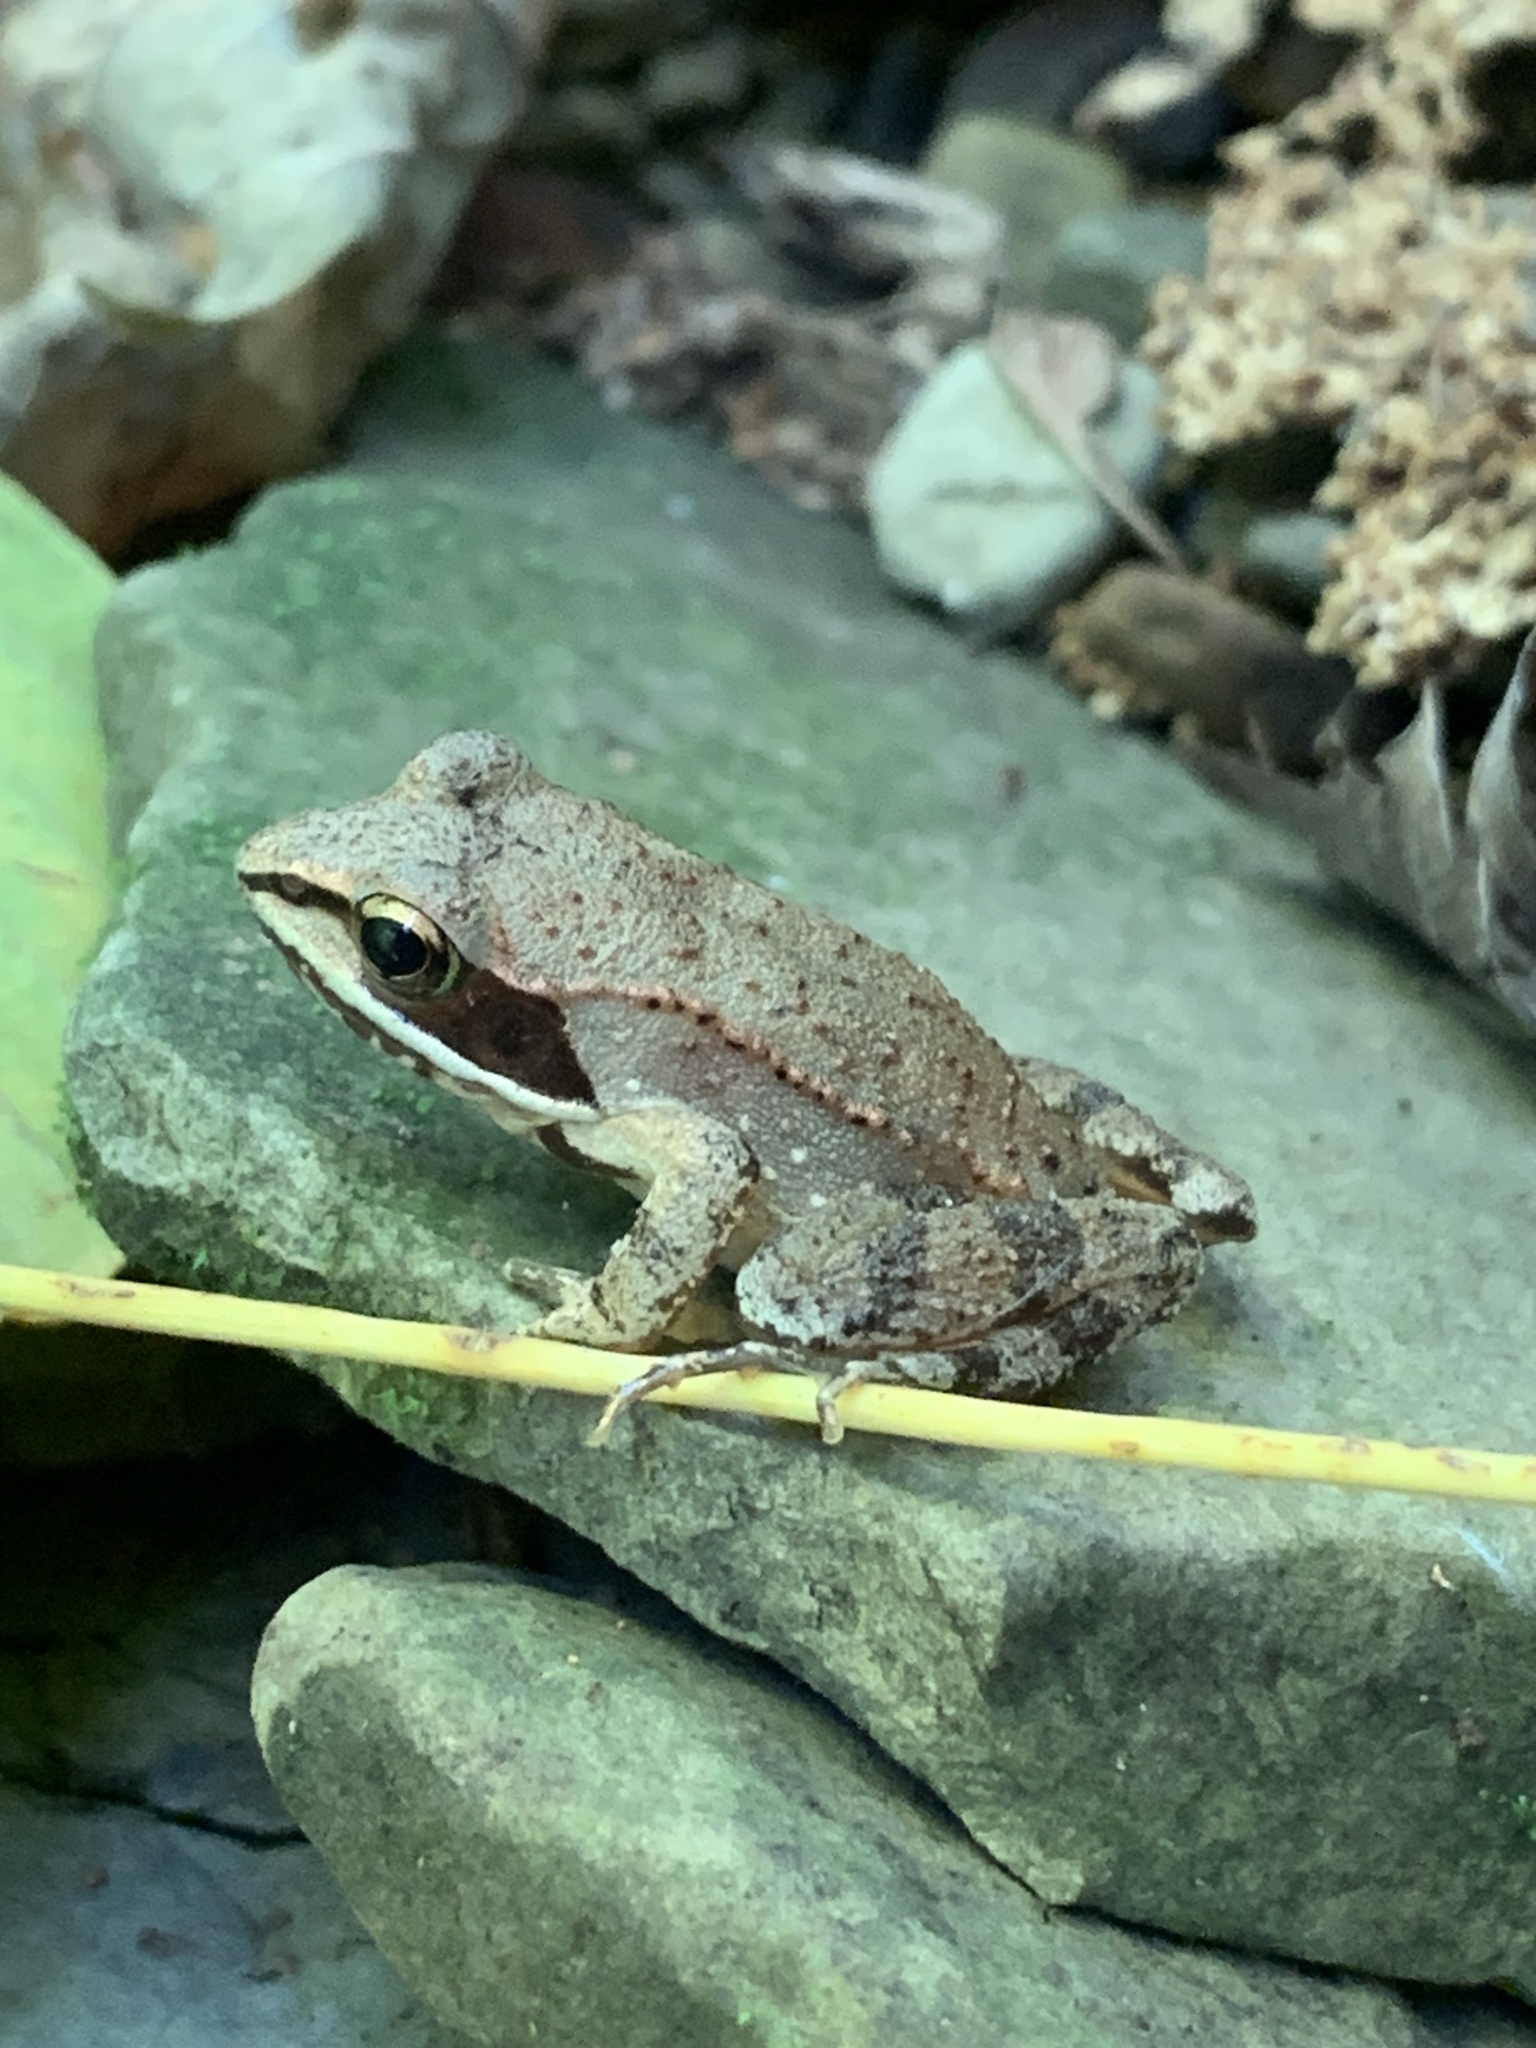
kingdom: Animalia
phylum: Chordata
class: Amphibia
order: Anura
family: Ranidae
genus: Lithobates
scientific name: Lithobates sylvaticus
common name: Wood frog
